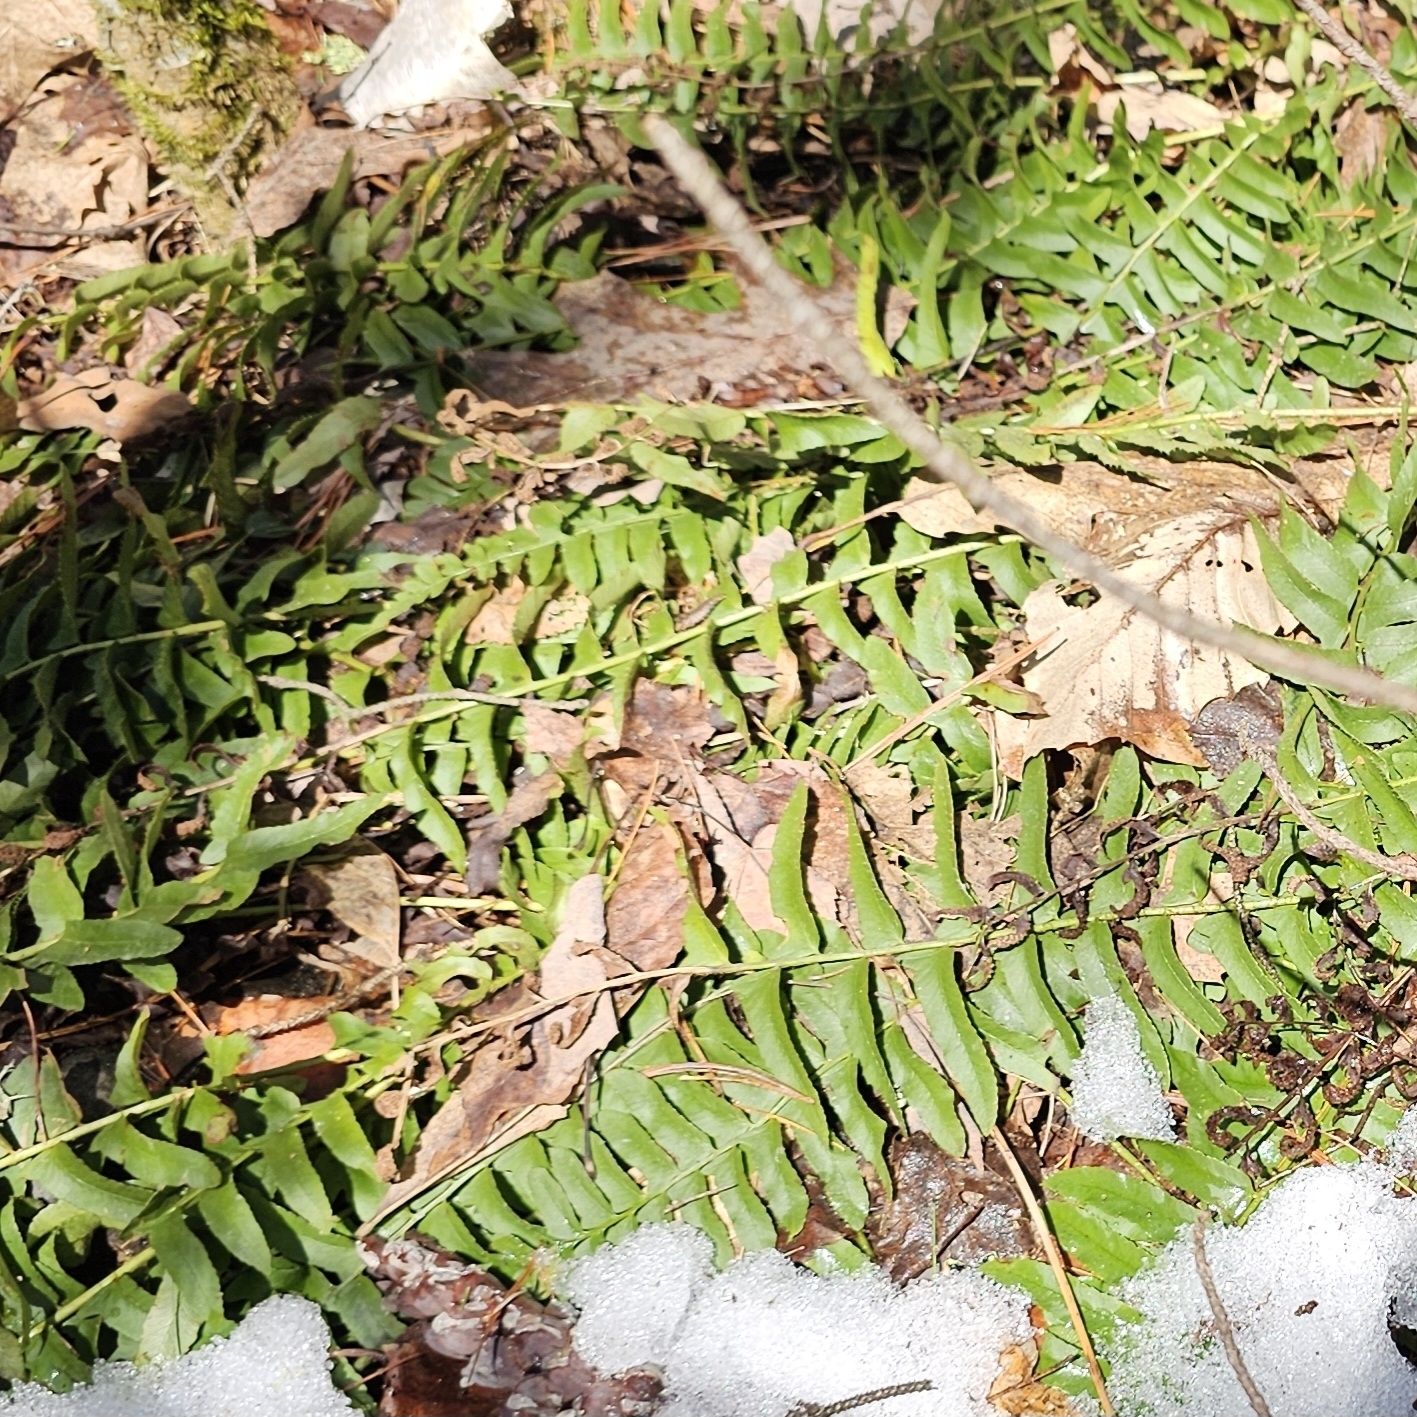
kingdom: Plantae
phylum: Tracheophyta
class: Polypodiopsida
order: Polypodiales
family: Dryopteridaceae
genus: Polystichum
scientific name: Polystichum acrostichoides
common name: Christmas fern
